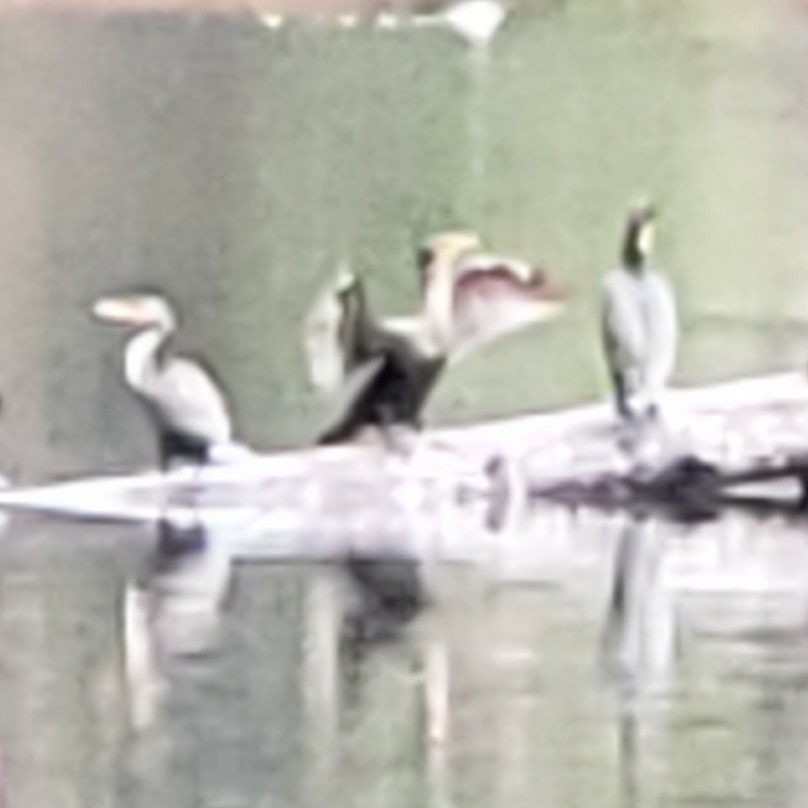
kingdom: Animalia
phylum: Chordata
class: Aves
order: Suliformes
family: Phalacrocoracidae
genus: Phalacrocorax
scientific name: Phalacrocorax auritus
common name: Double-crested cormorant
